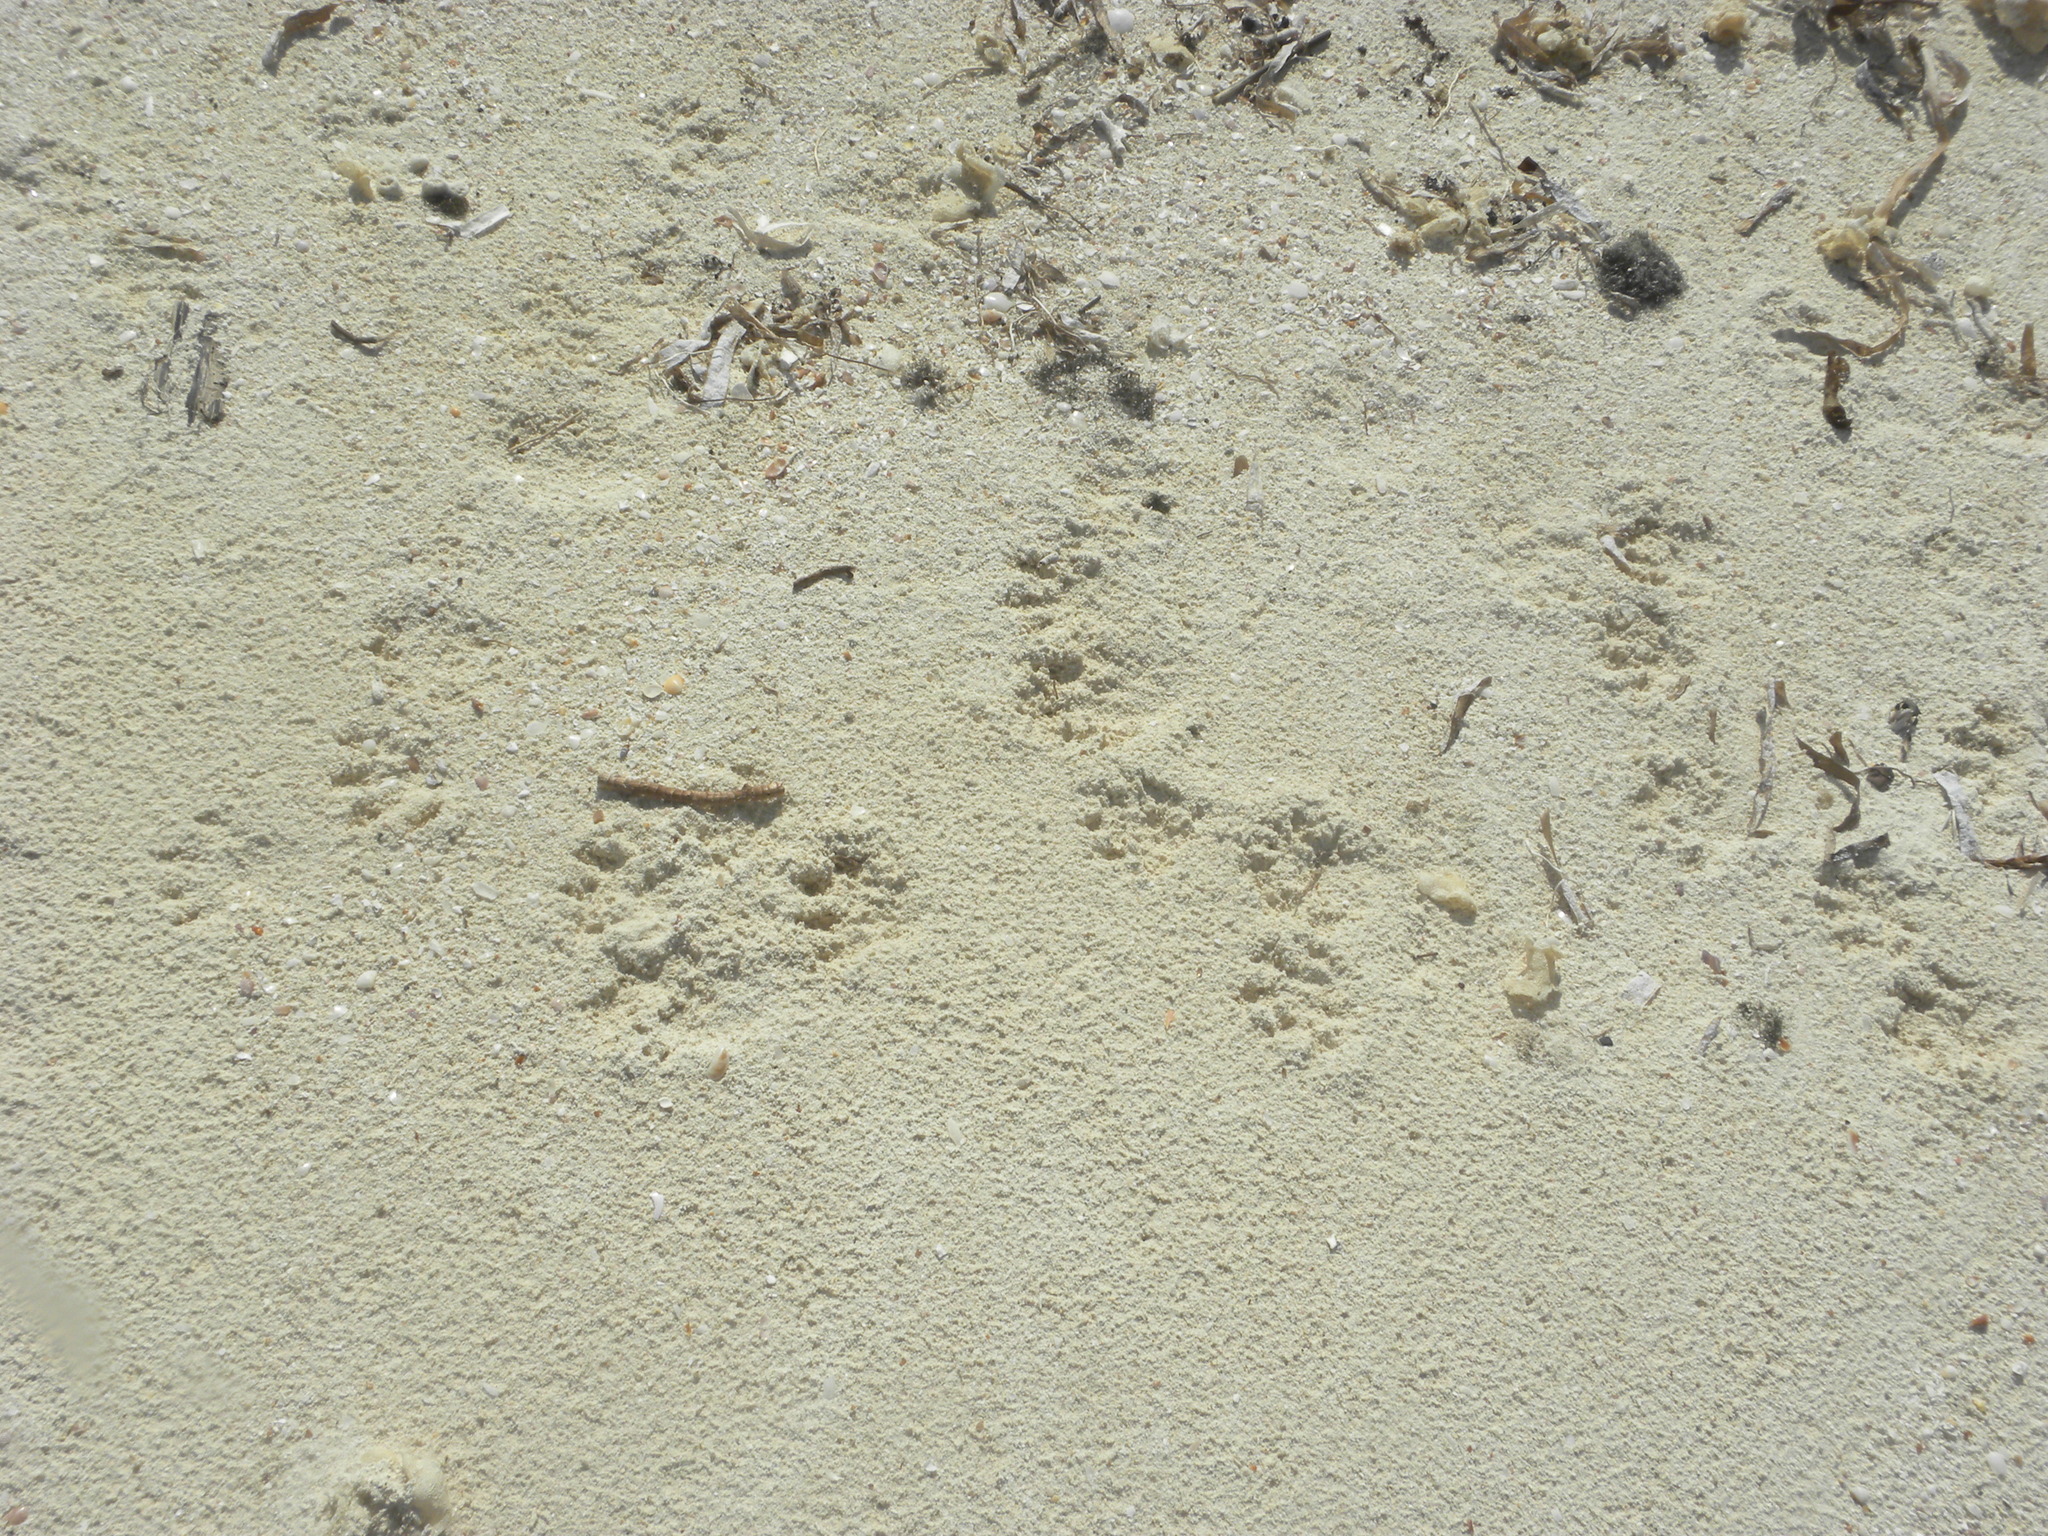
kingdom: Animalia
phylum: Chordata
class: Mammalia
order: Carnivora
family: Procyonidae
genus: Procyon
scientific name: Procyon pygmaeus
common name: Cozumel raccoon
